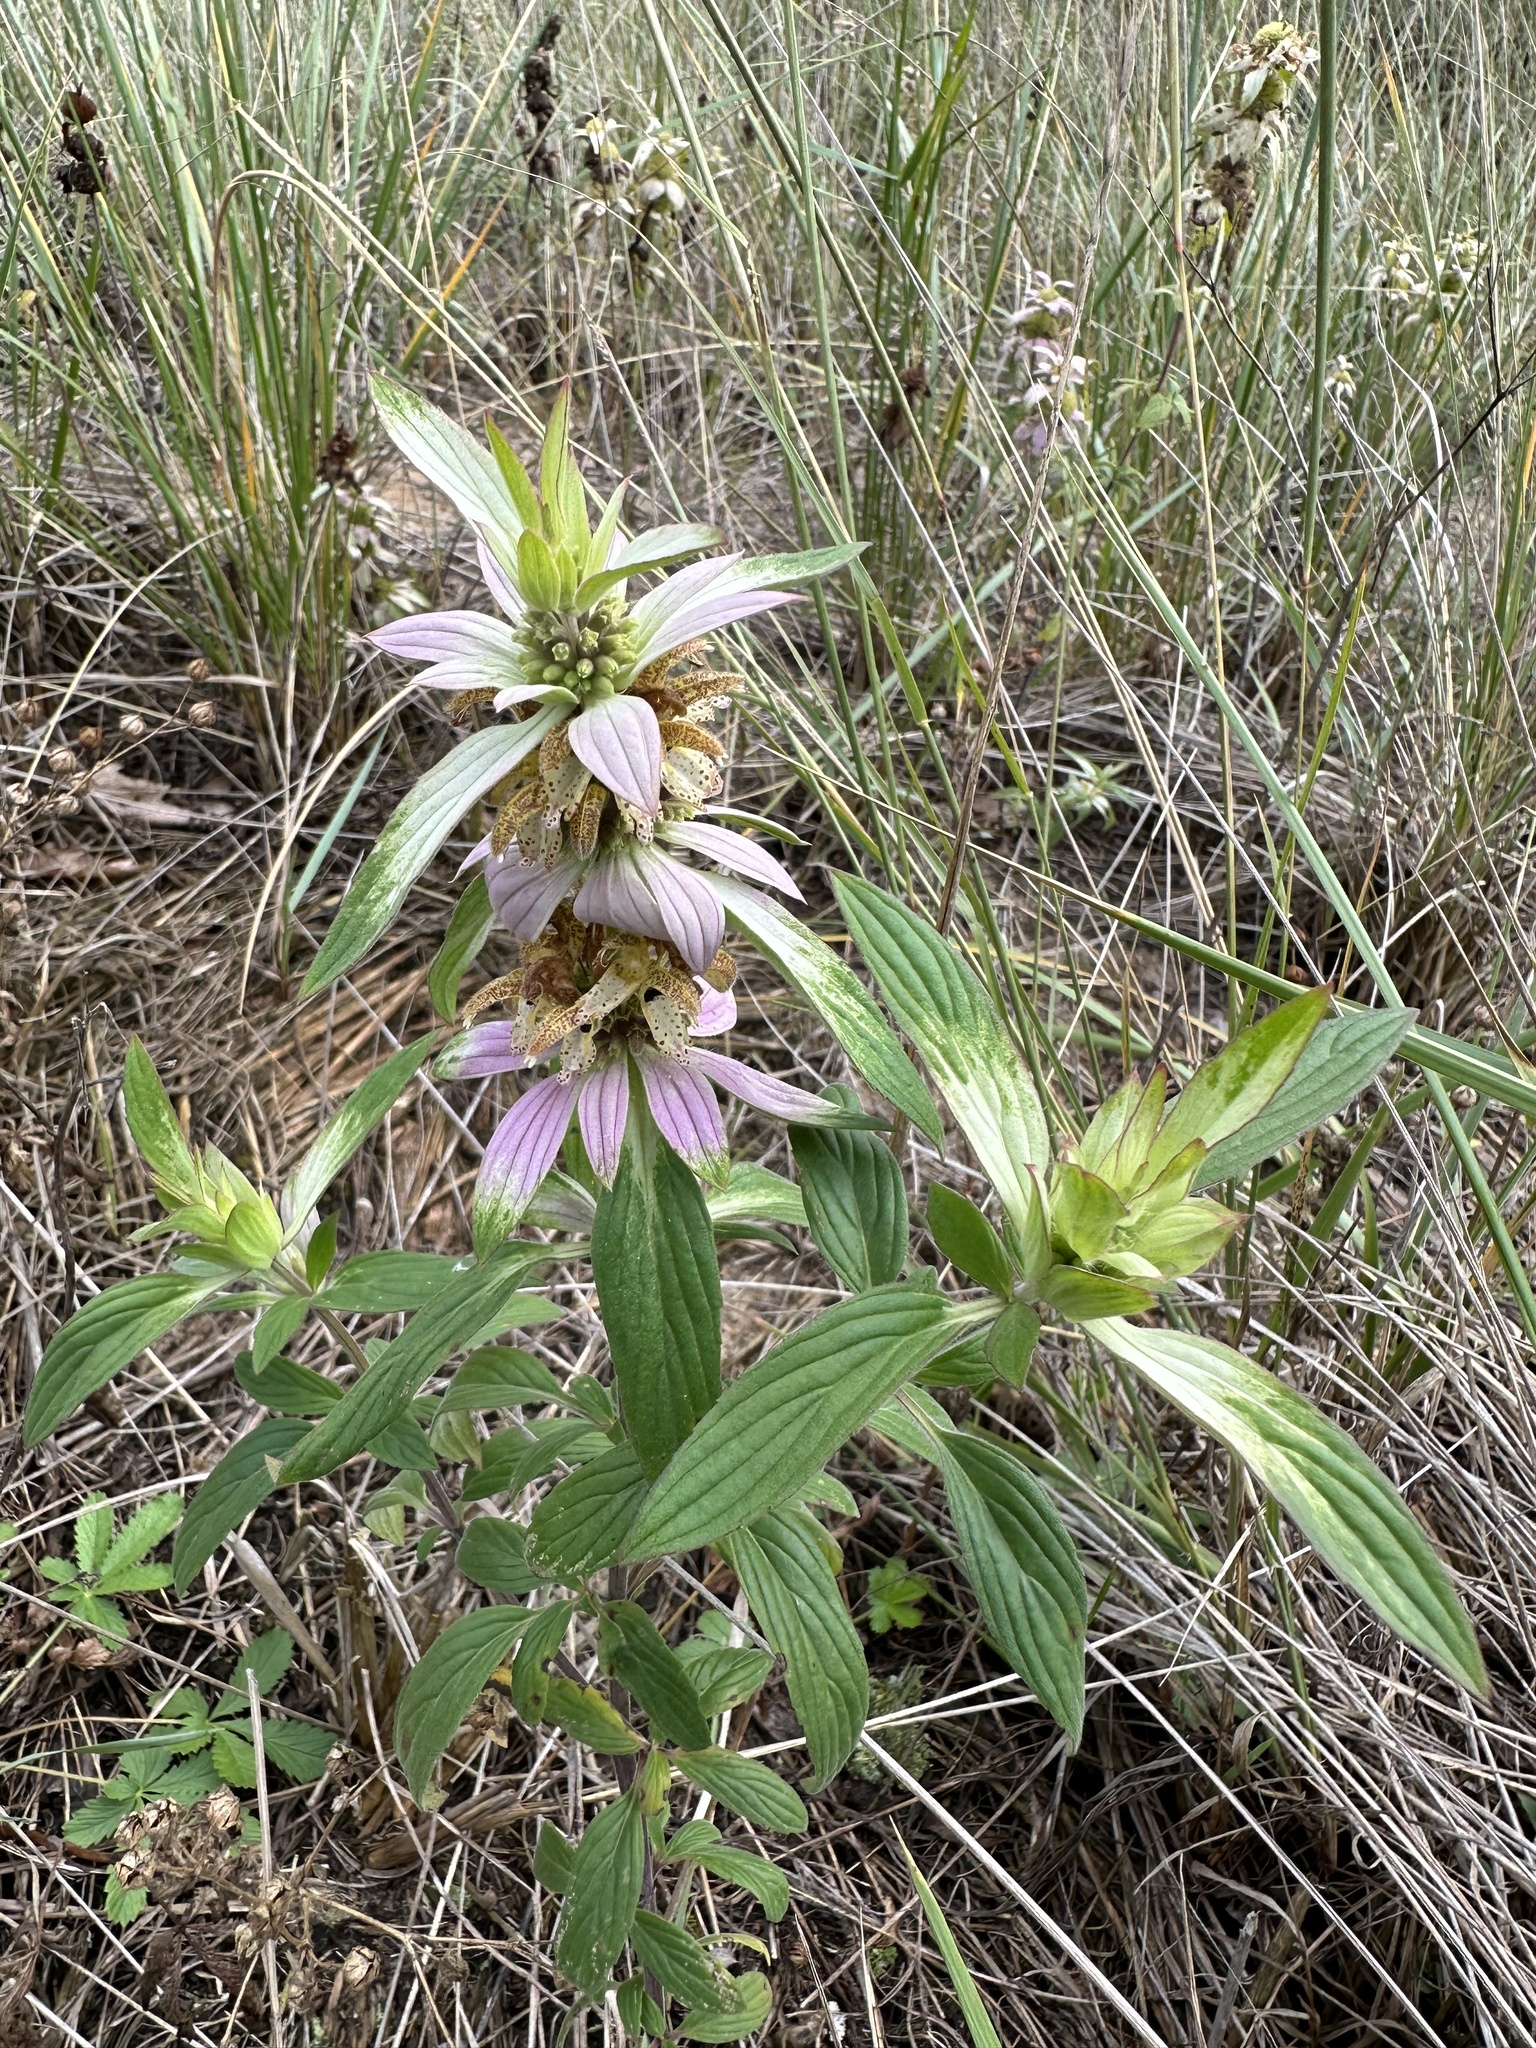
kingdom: Plantae
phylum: Tracheophyta
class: Magnoliopsida
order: Lamiales
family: Lamiaceae
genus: Monarda
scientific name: Monarda punctata
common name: Dotted monarda
